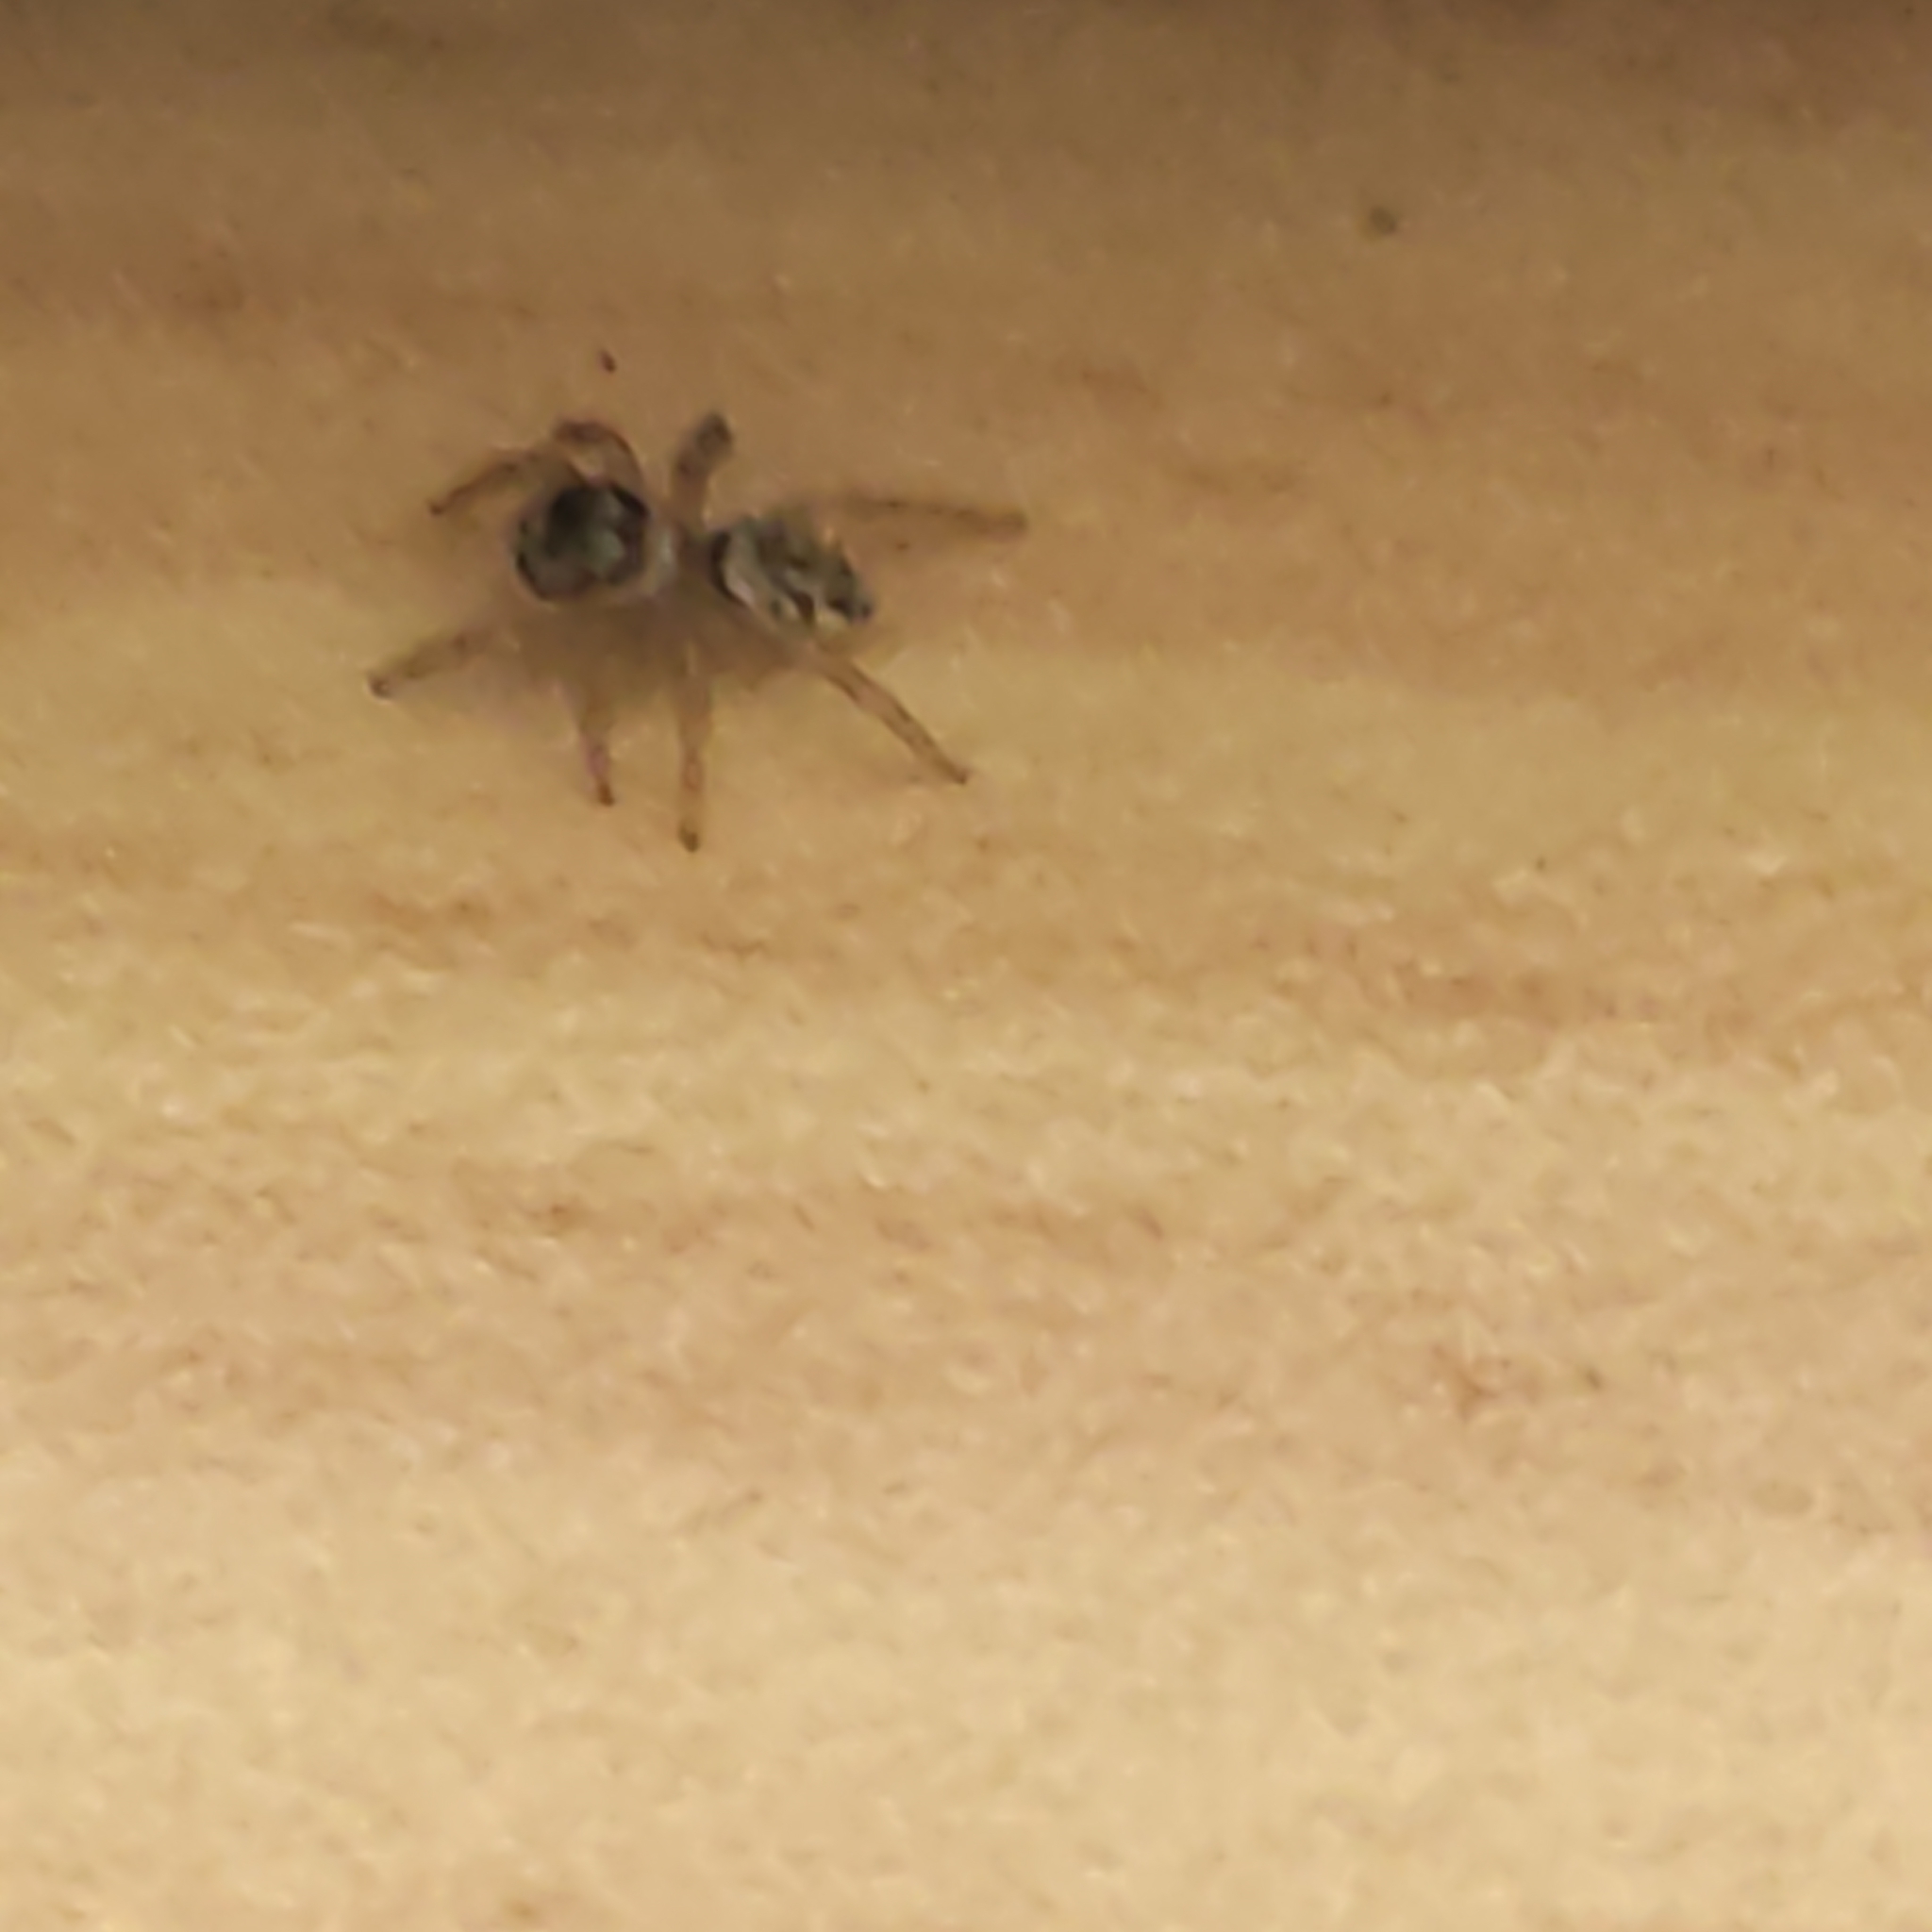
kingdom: Animalia
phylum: Arthropoda
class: Arachnida
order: Araneae
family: Salticidae
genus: Maratus
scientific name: Maratus griseus
